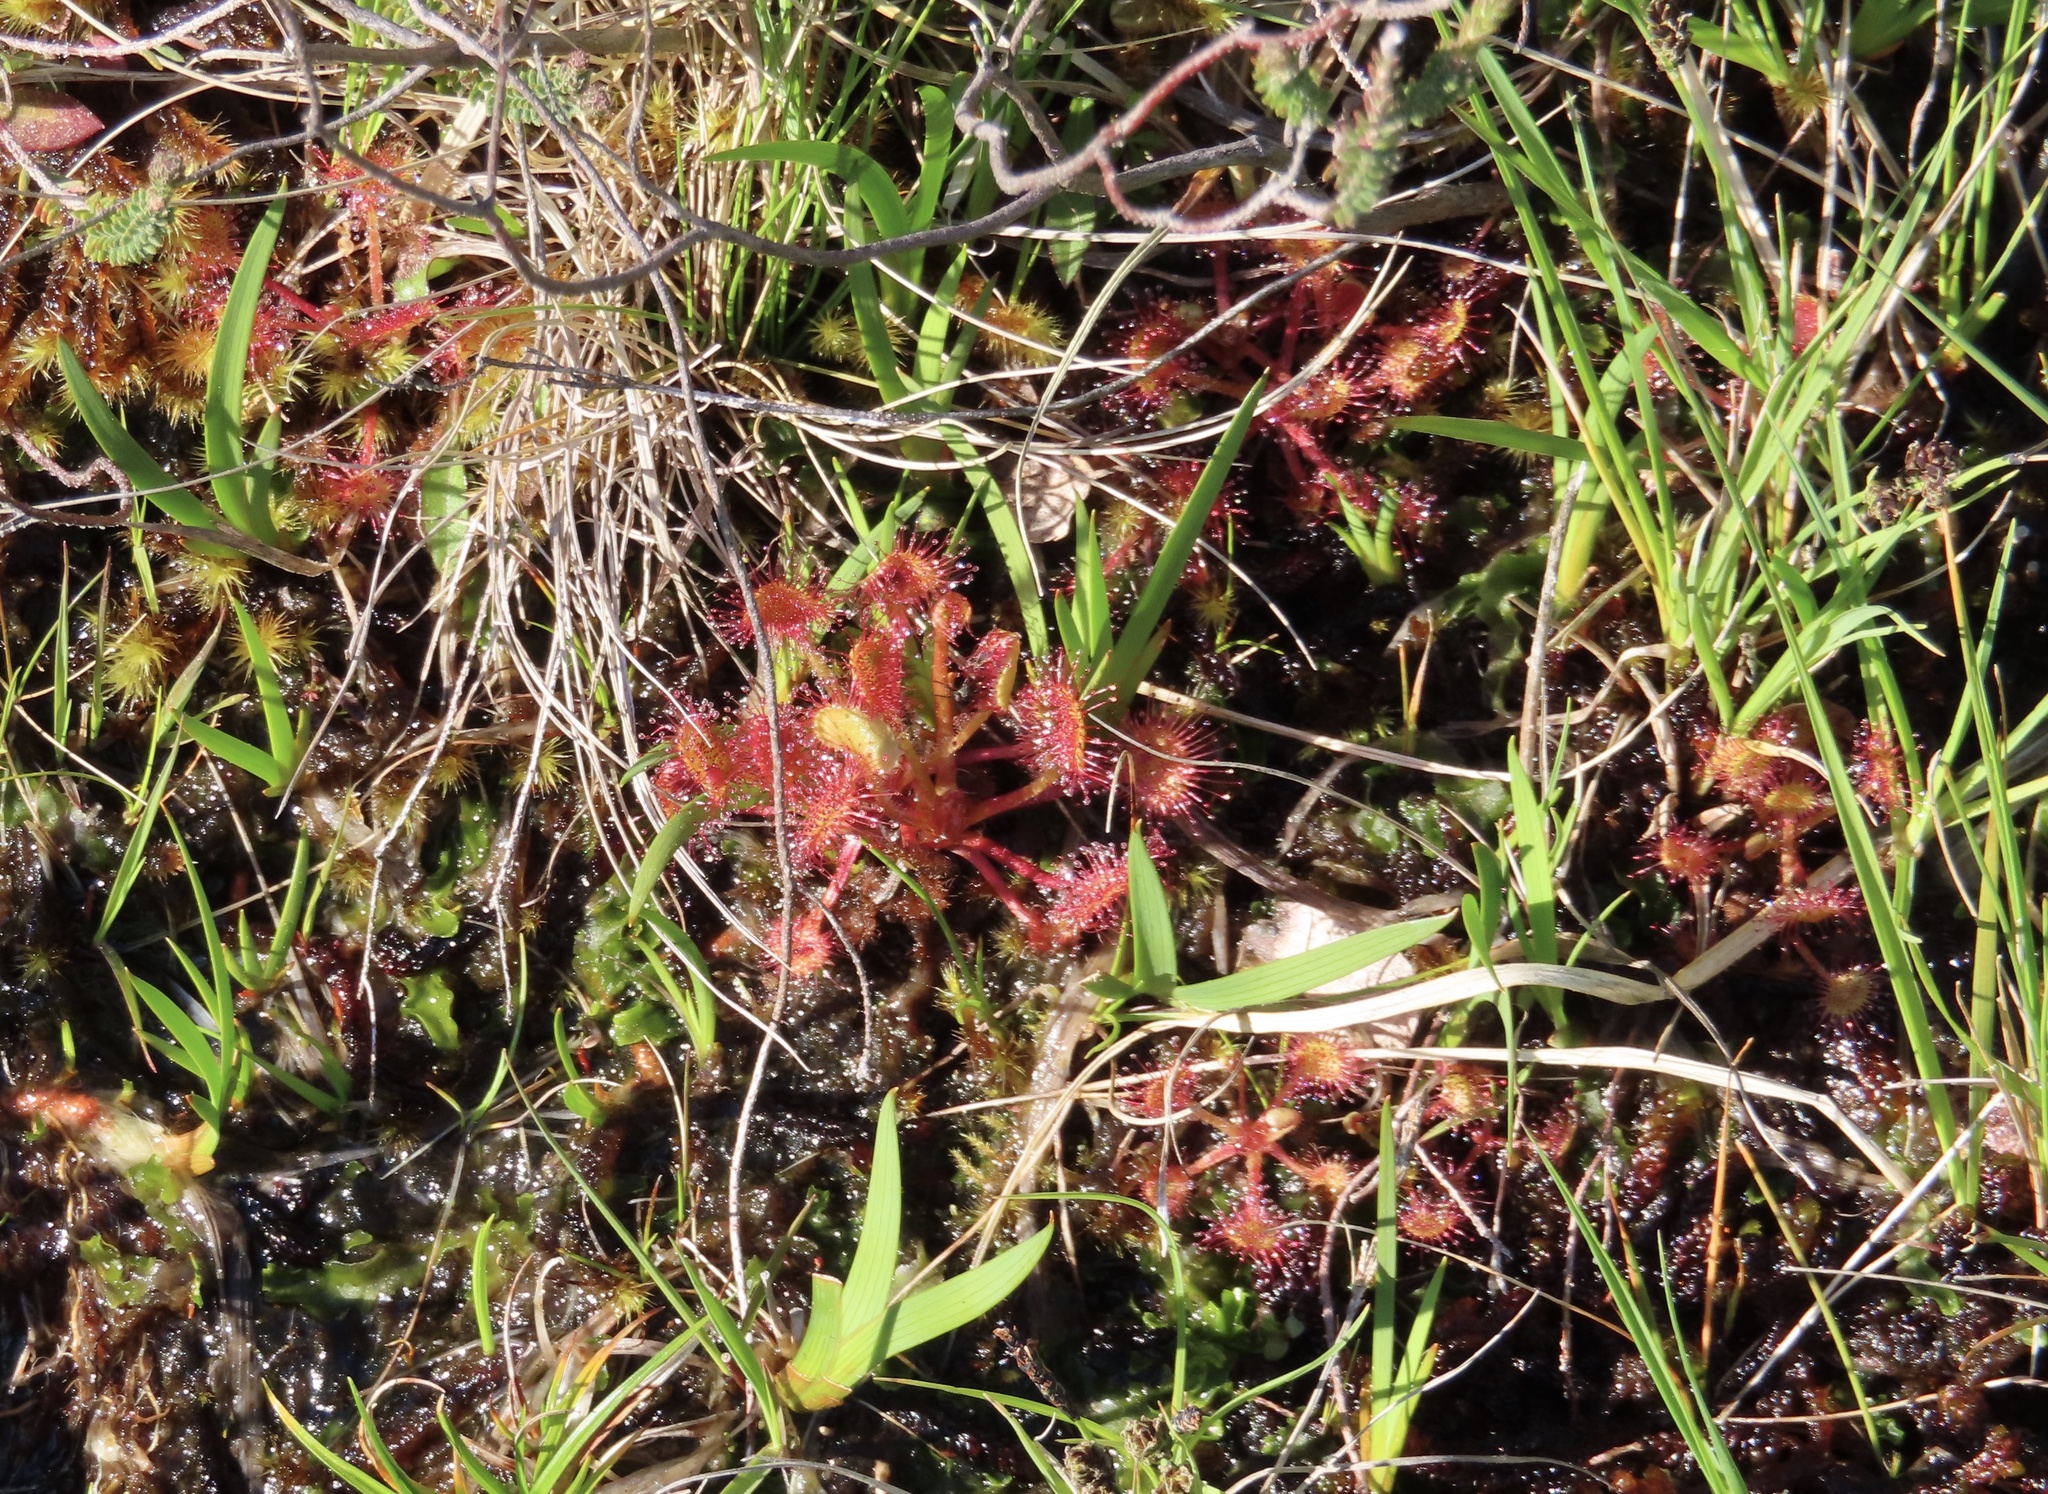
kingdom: Plantae
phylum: Tracheophyta
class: Magnoliopsida
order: Caryophyllales
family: Droseraceae
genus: Drosera
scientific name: Drosera rotundifolia
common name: Round-leaved sundew
